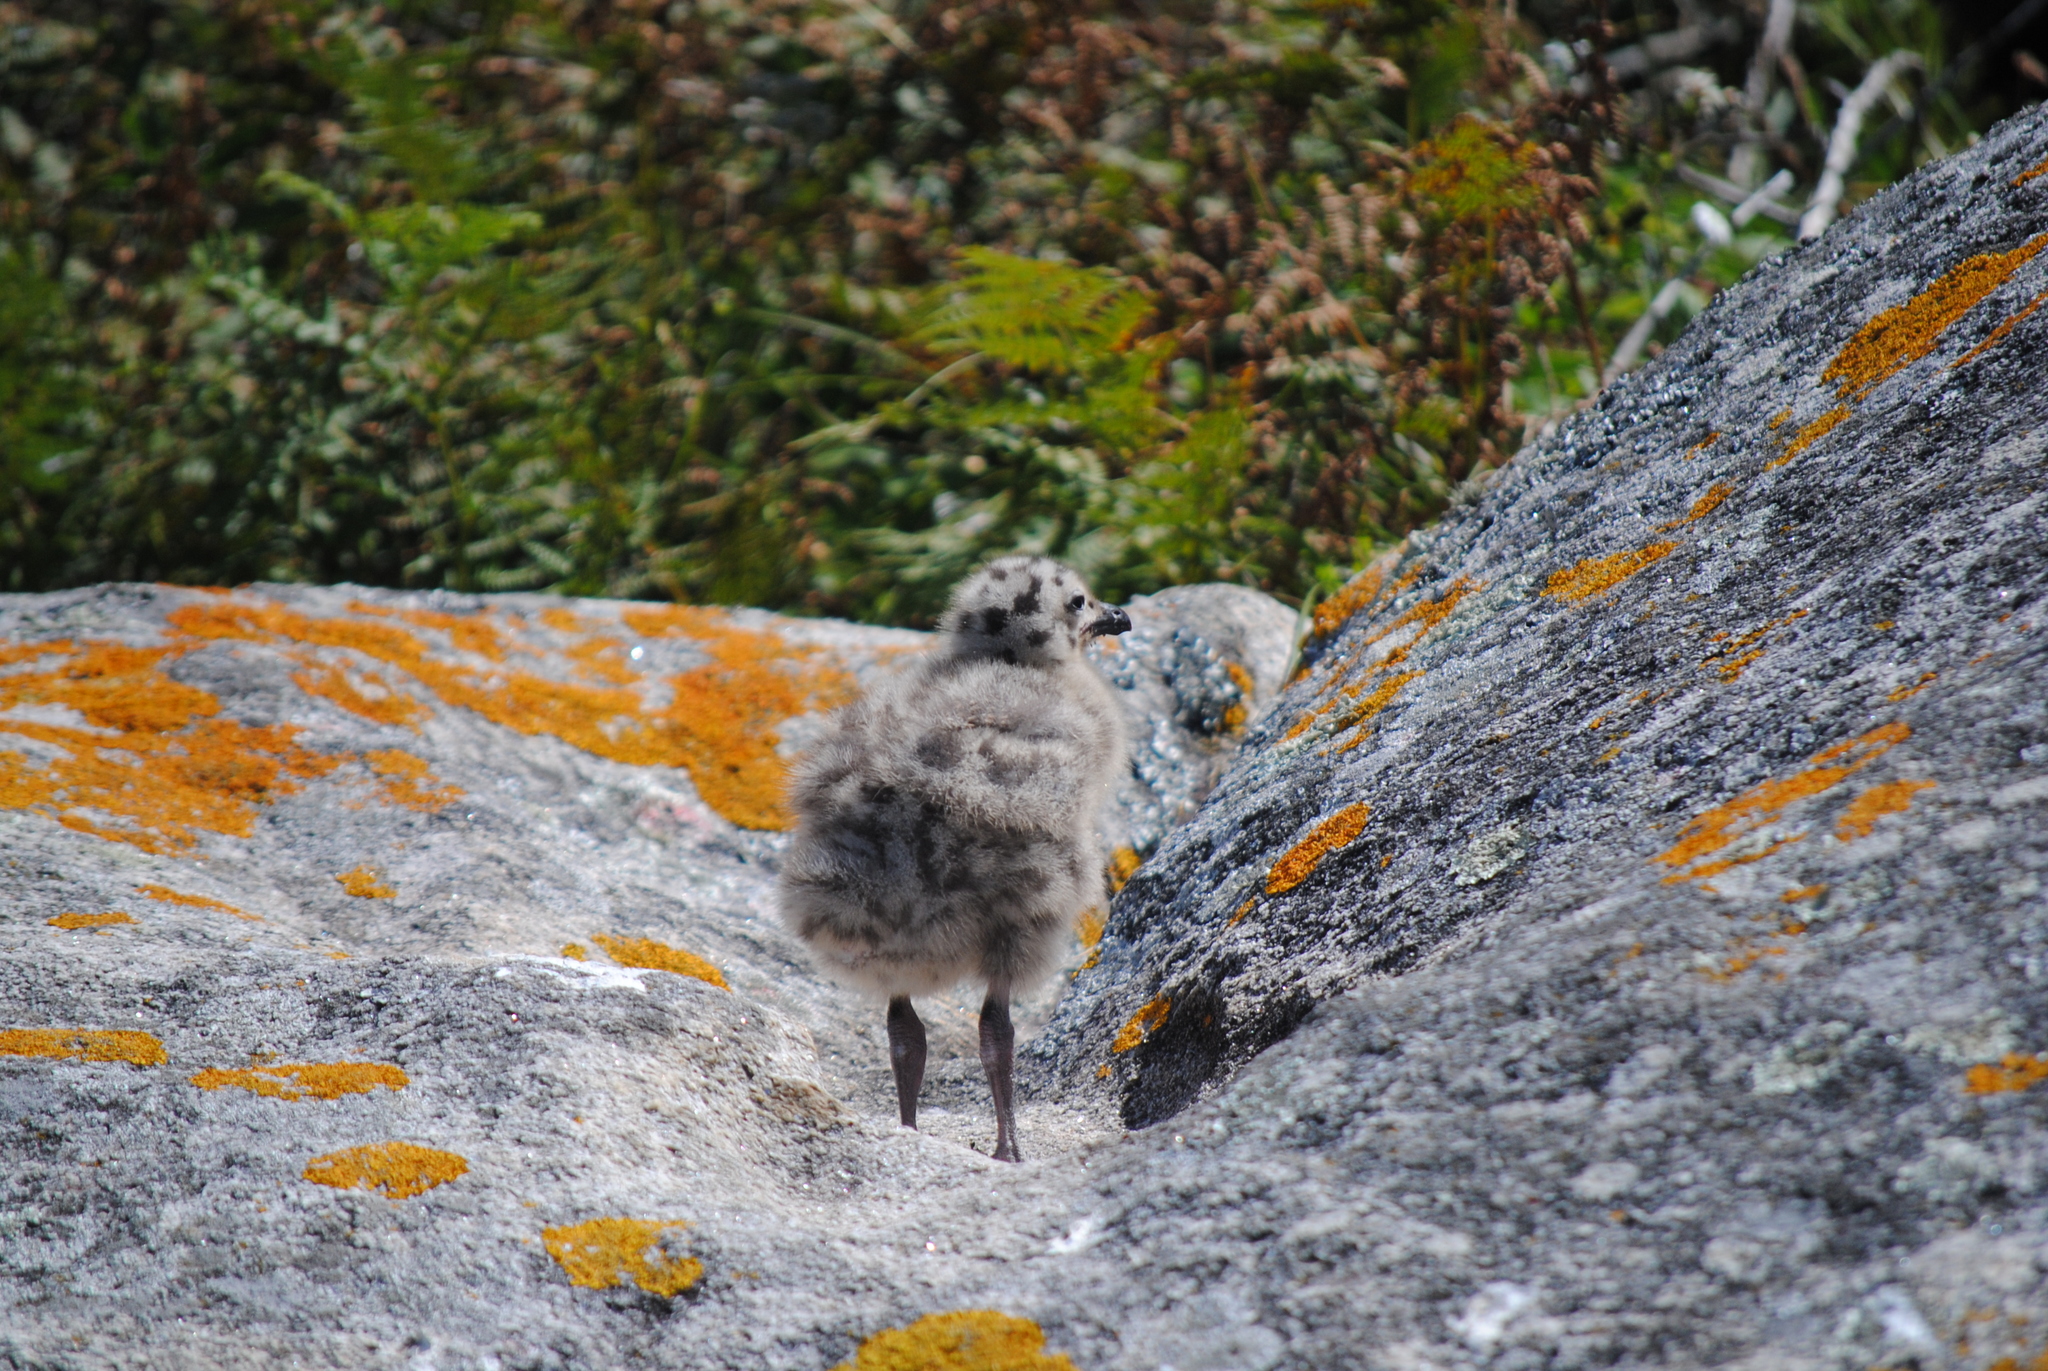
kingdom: Animalia
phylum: Chordata
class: Aves
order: Charadriiformes
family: Laridae
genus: Larus
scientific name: Larus michahellis
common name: Yellow-legged gull
